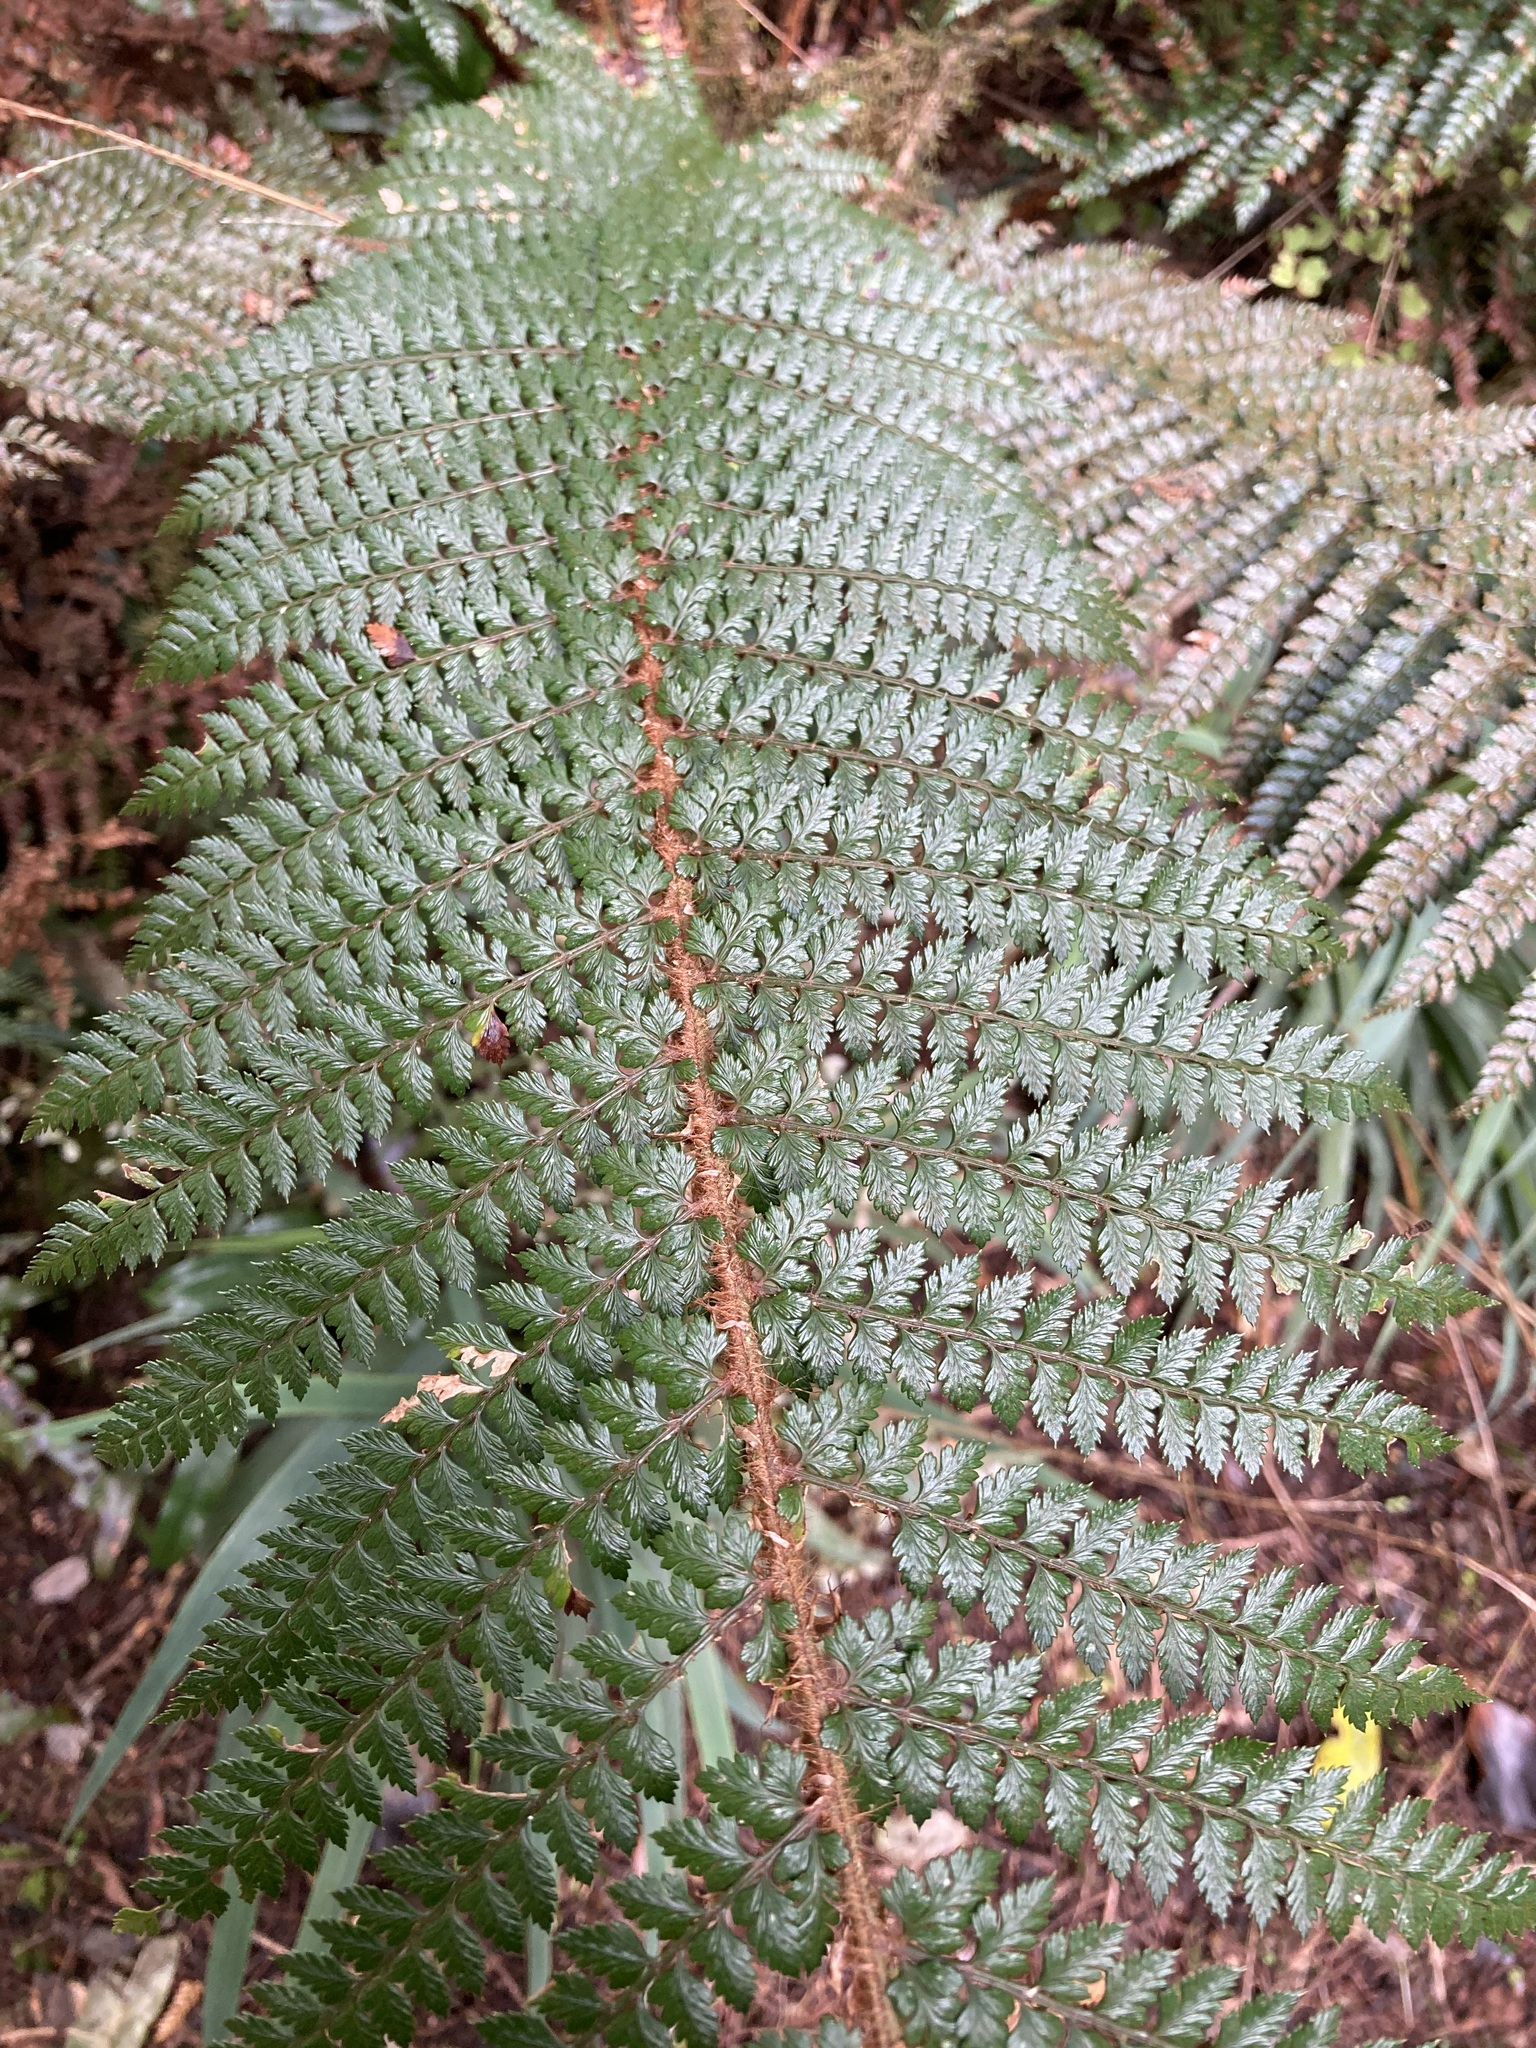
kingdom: Plantae
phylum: Tracheophyta
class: Polypodiopsida
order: Polypodiales
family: Dryopteridaceae
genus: Polystichum
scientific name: Polystichum vestitum
